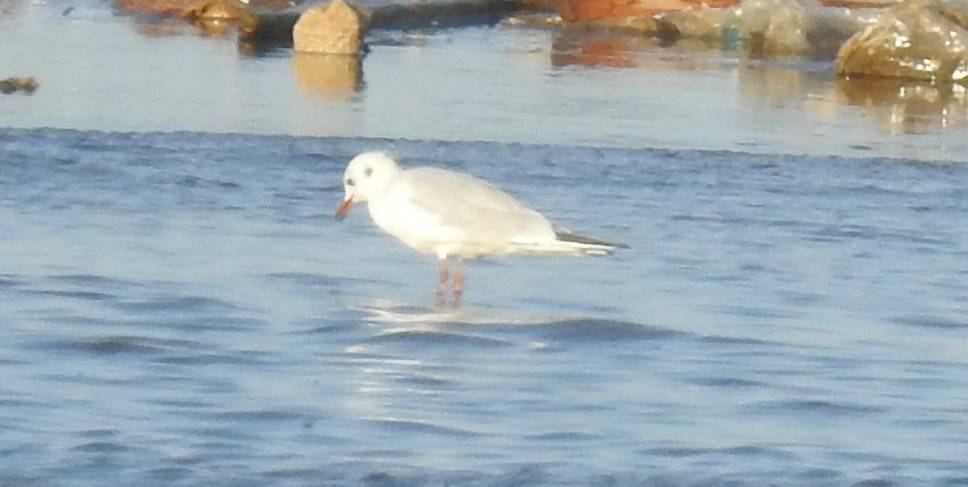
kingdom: Animalia
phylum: Chordata
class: Aves
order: Charadriiformes
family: Laridae
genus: Chroicocephalus
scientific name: Chroicocephalus ridibundus
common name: Black-headed gull
